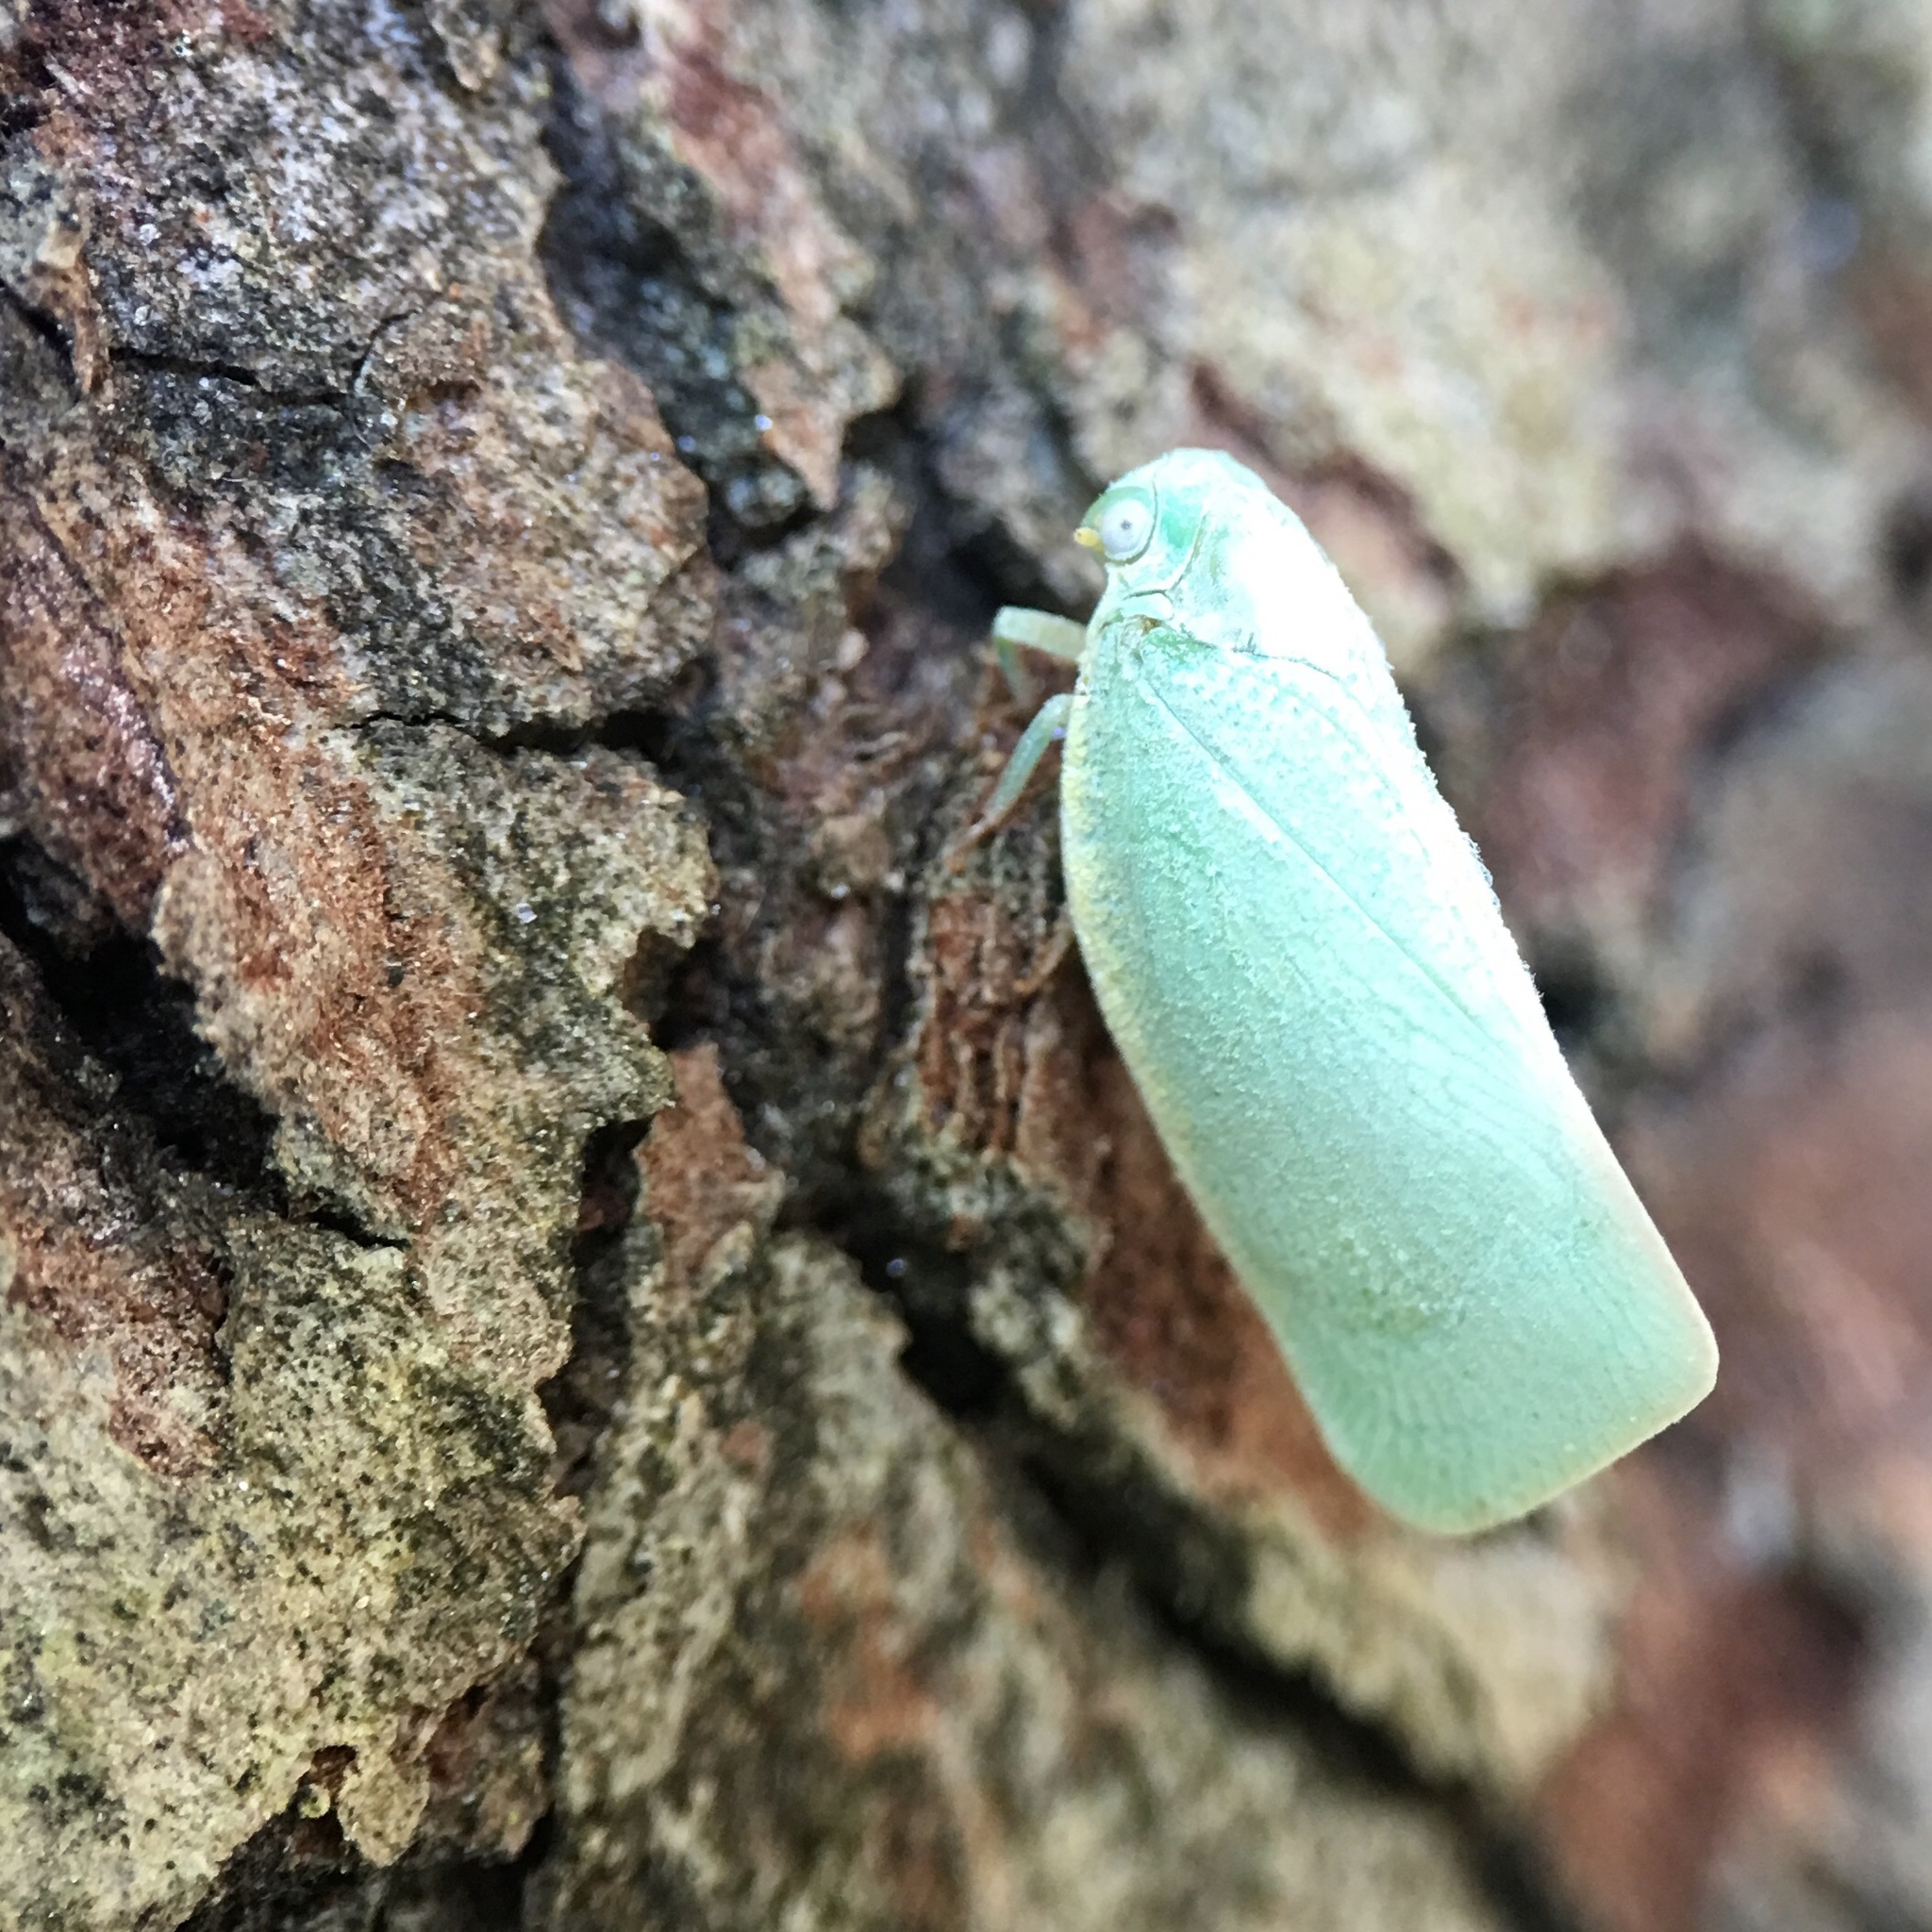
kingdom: Animalia
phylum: Arthropoda
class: Insecta
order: Hemiptera
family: Flatidae
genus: Flatormenis
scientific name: Flatormenis proxima
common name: Northern flatid planthopper
